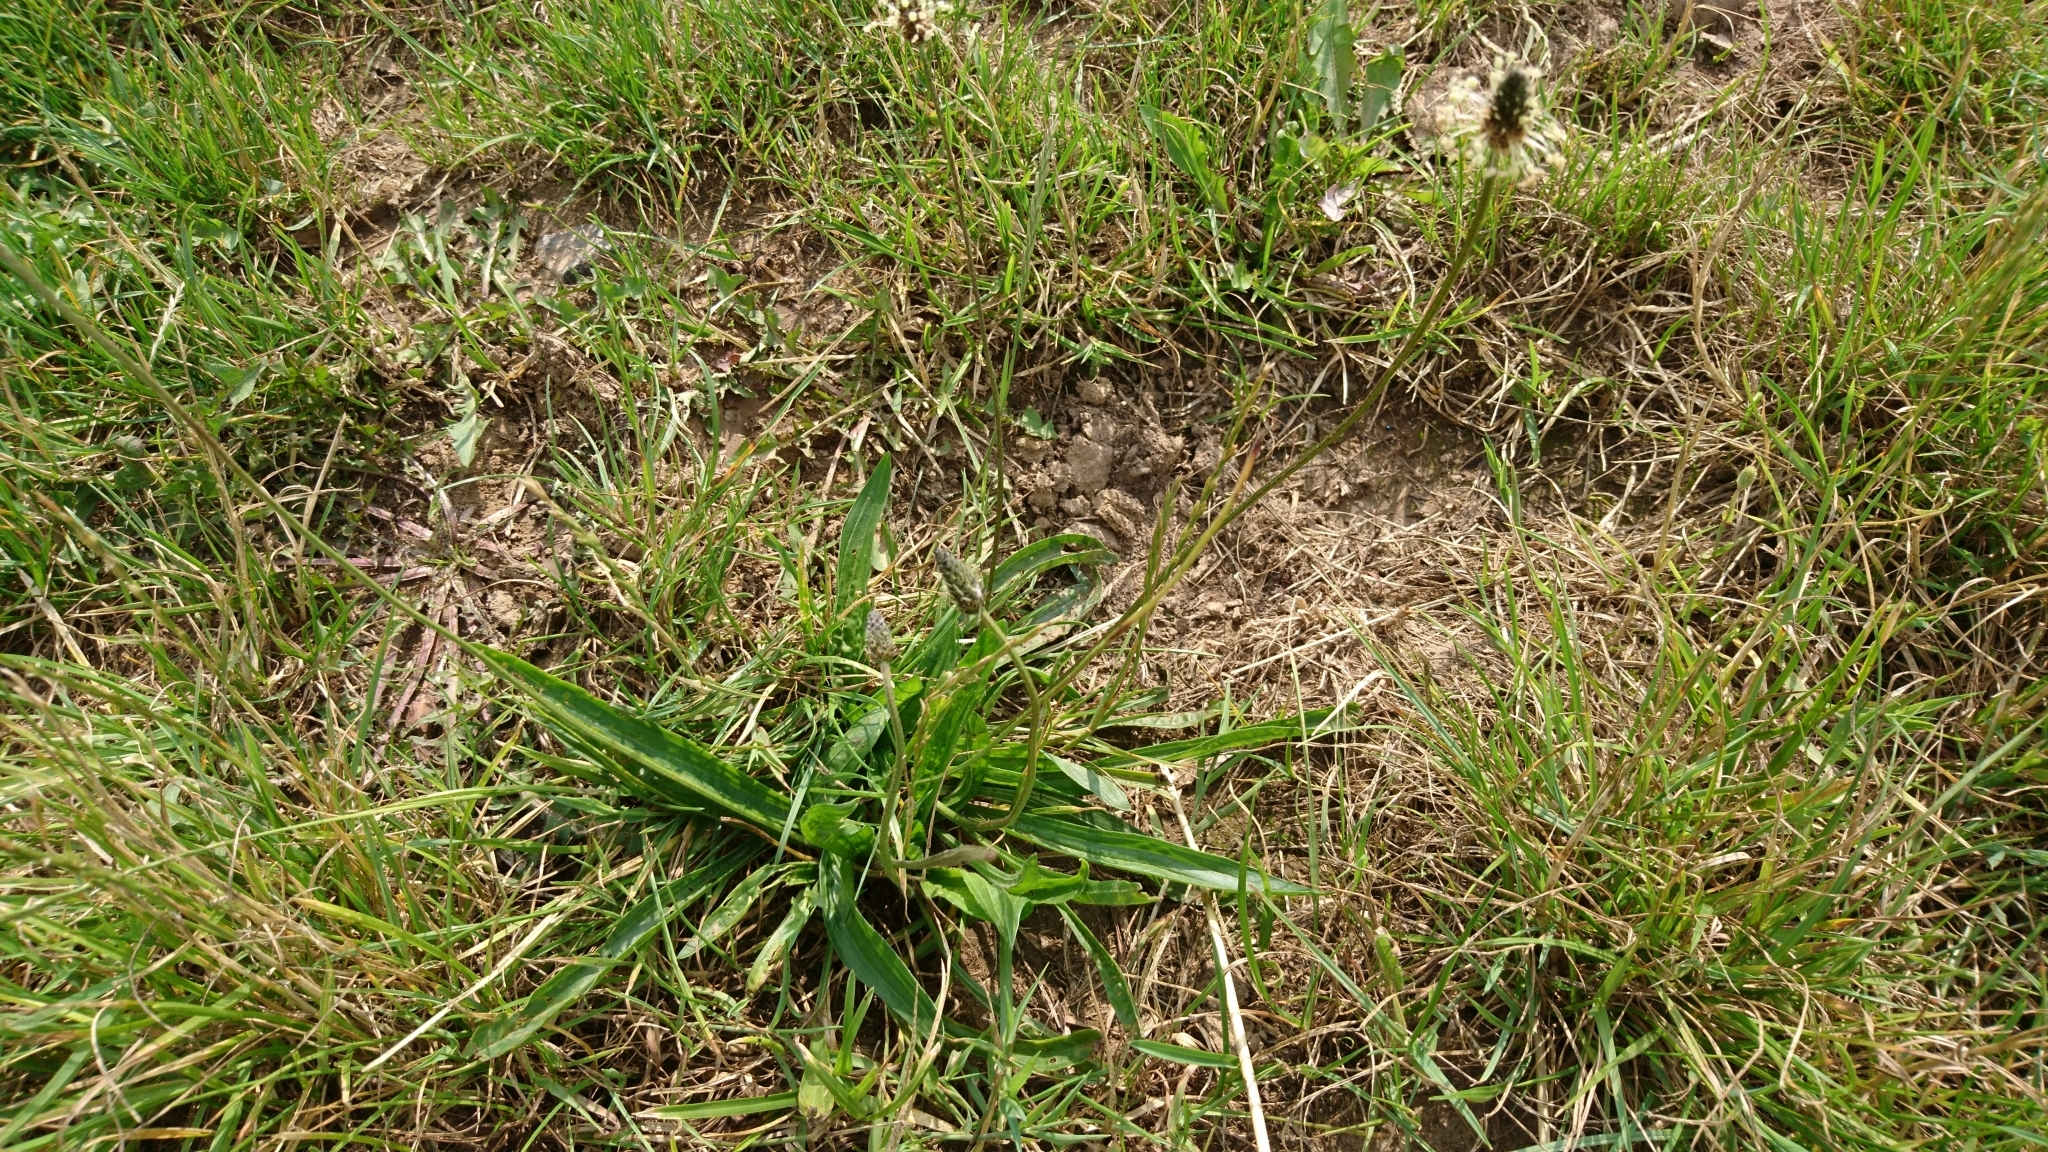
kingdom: Plantae
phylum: Tracheophyta
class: Magnoliopsida
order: Lamiales
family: Plantaginaceae
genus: Plantago
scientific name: Plantago lanceolata
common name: Ribwort plantain
